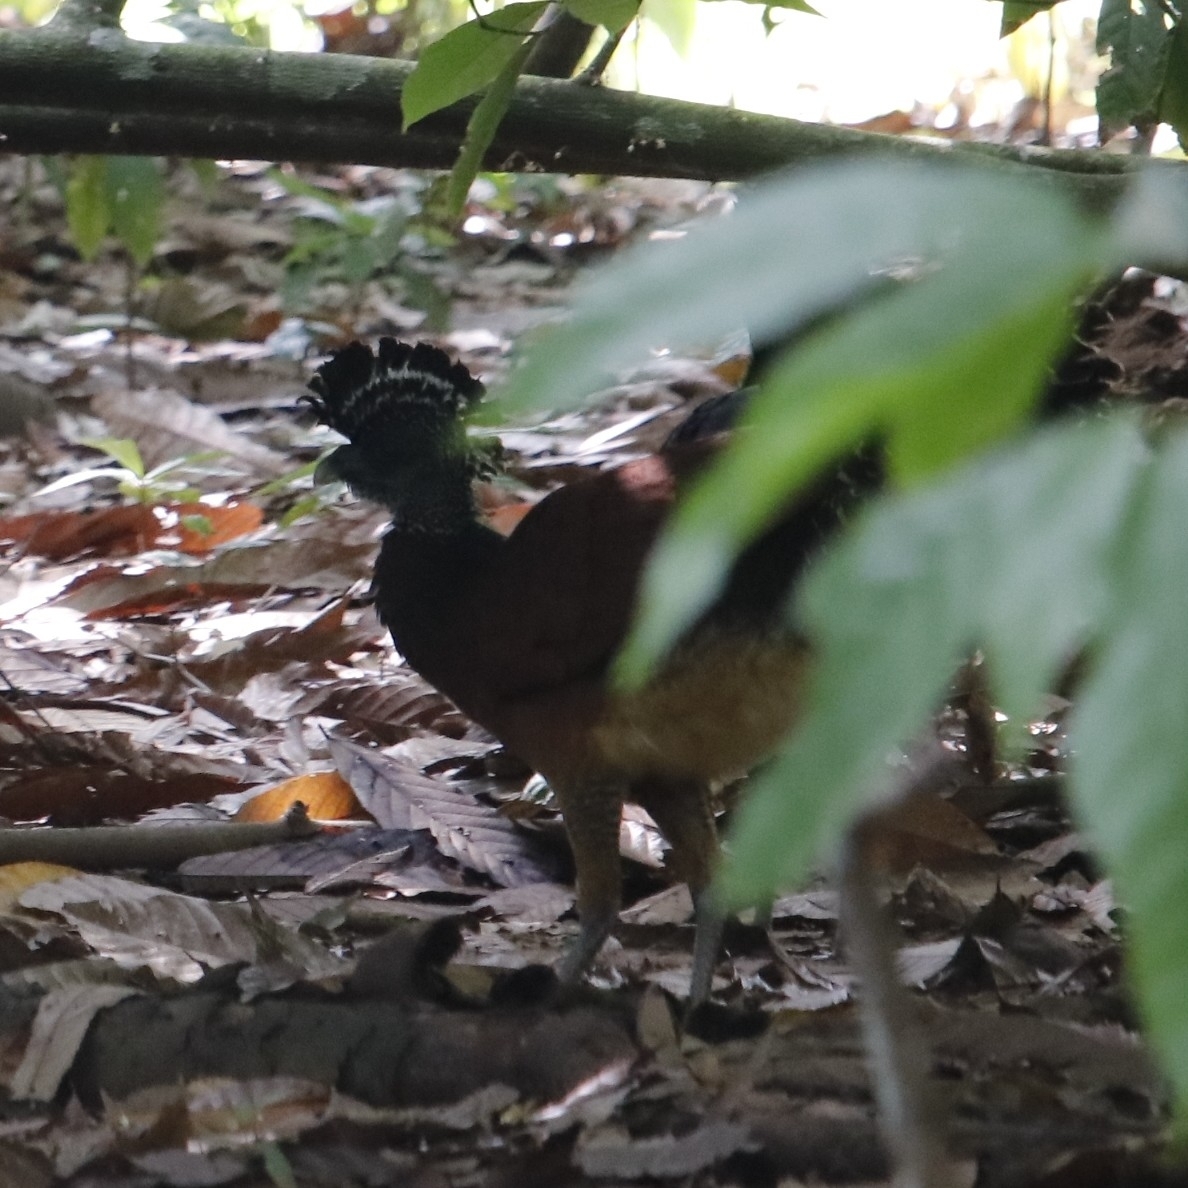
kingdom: Animalia
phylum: Chordata
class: Aves
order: Galliformes
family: Cracidae
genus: Crax
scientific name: Crax rubra
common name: Great curassow
